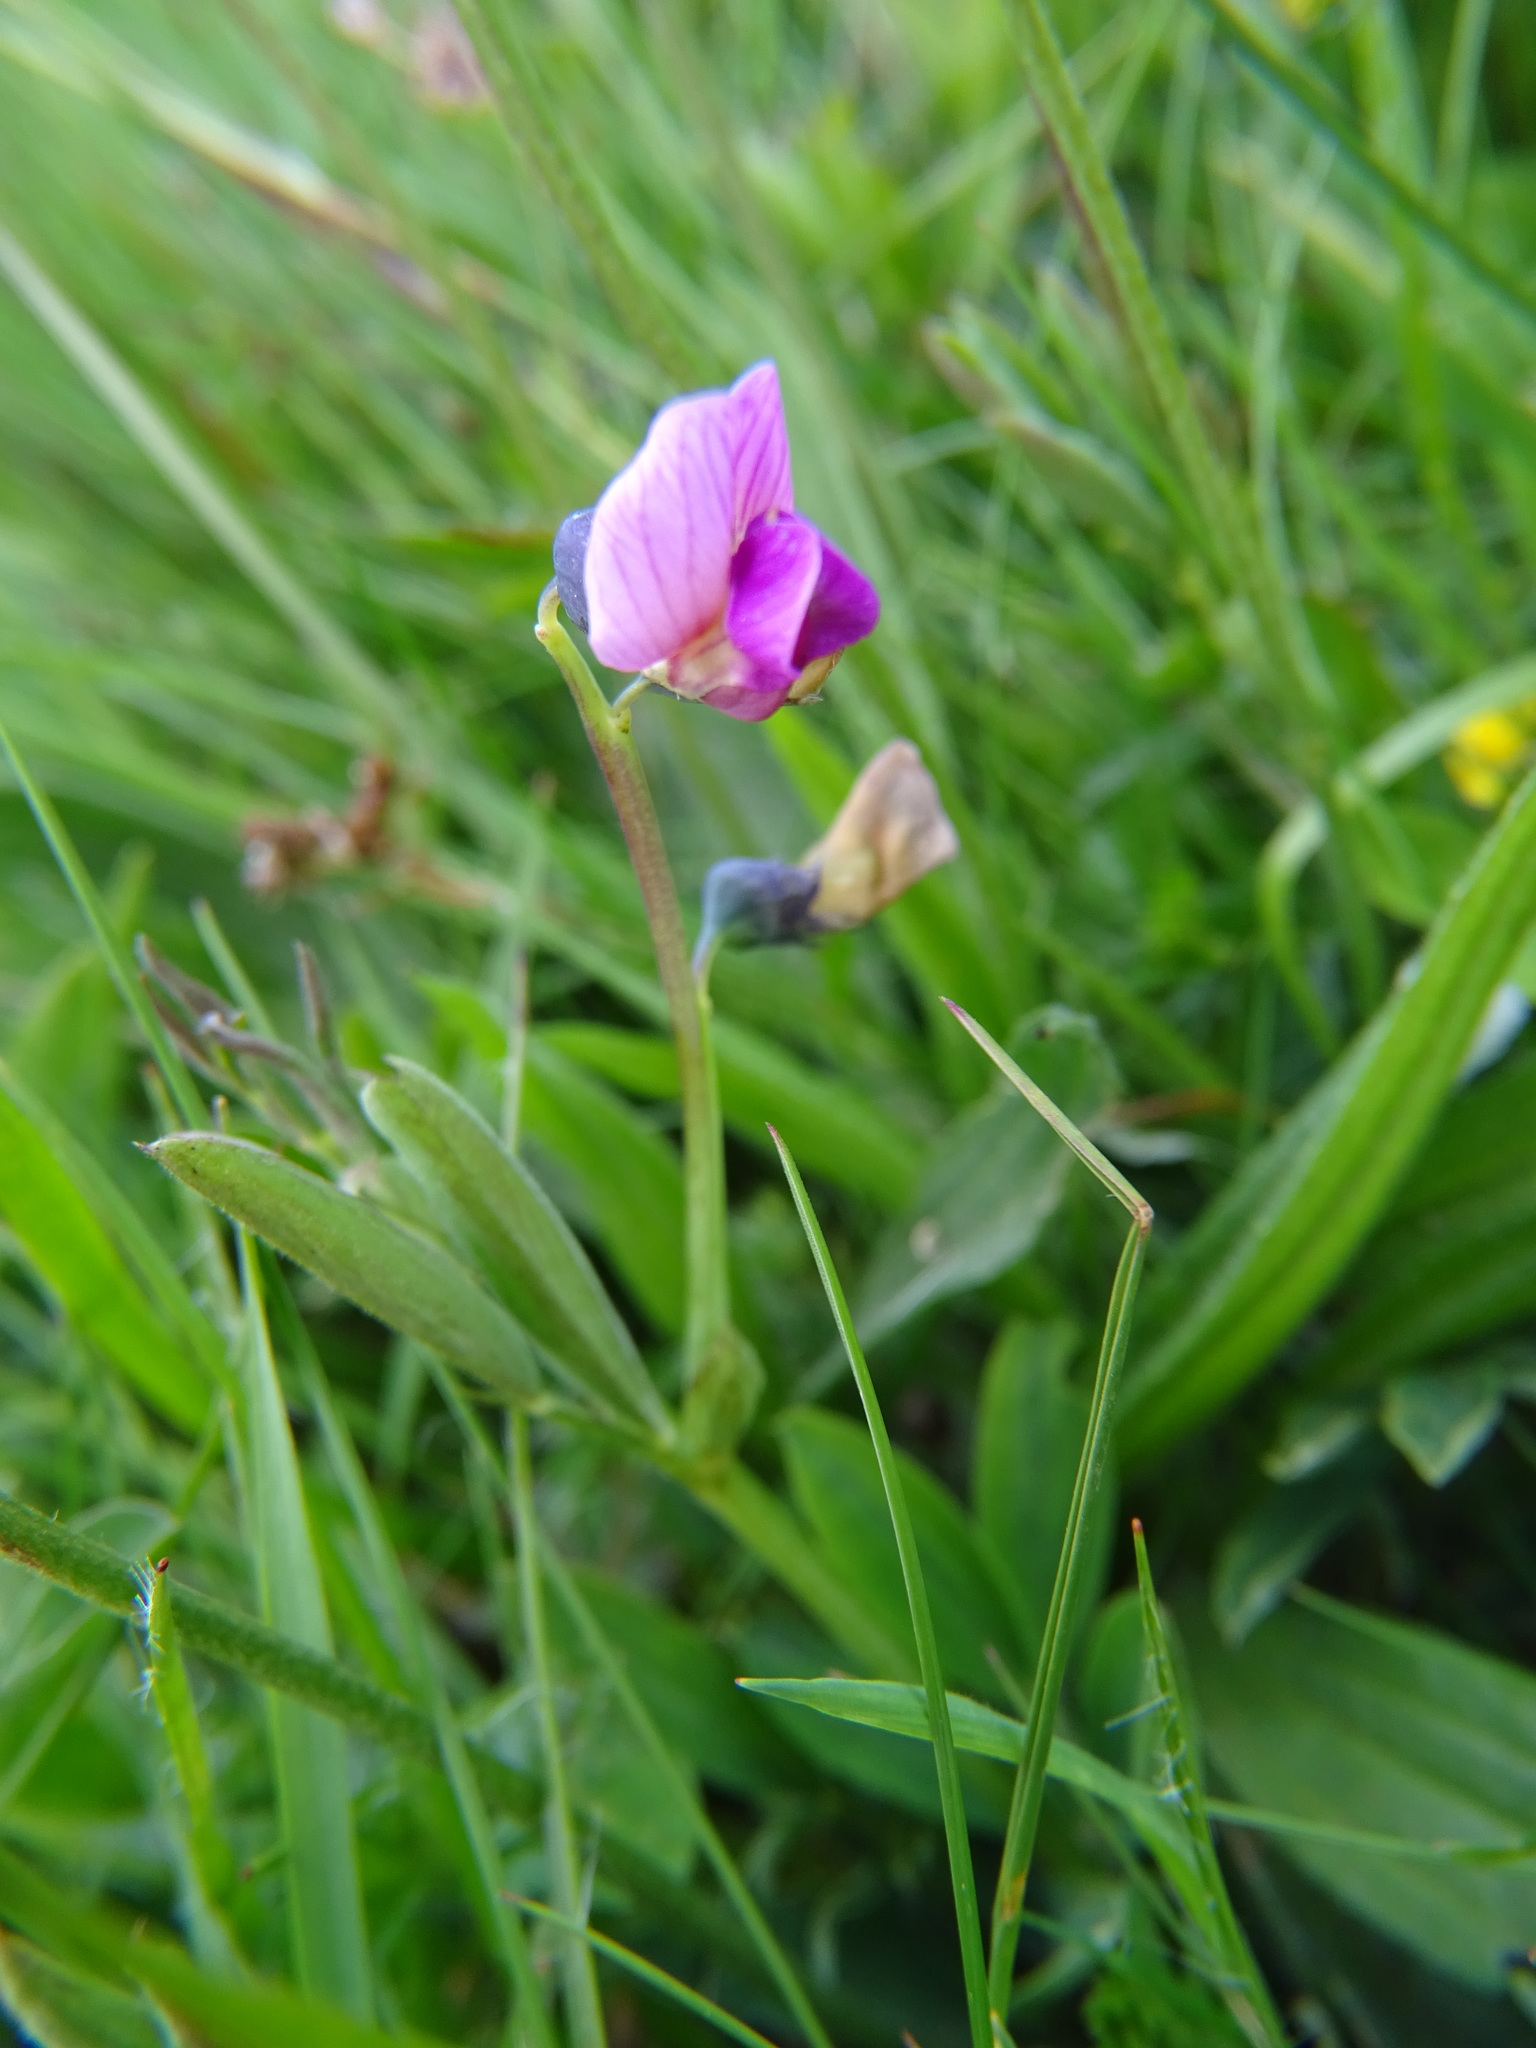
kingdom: Plantae
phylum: Tracheophyta
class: Magnoliopsida
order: Fabales
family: Fabaceae
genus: Lathyrus
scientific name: Lathyrus linifolius
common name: Bitter-vetch
